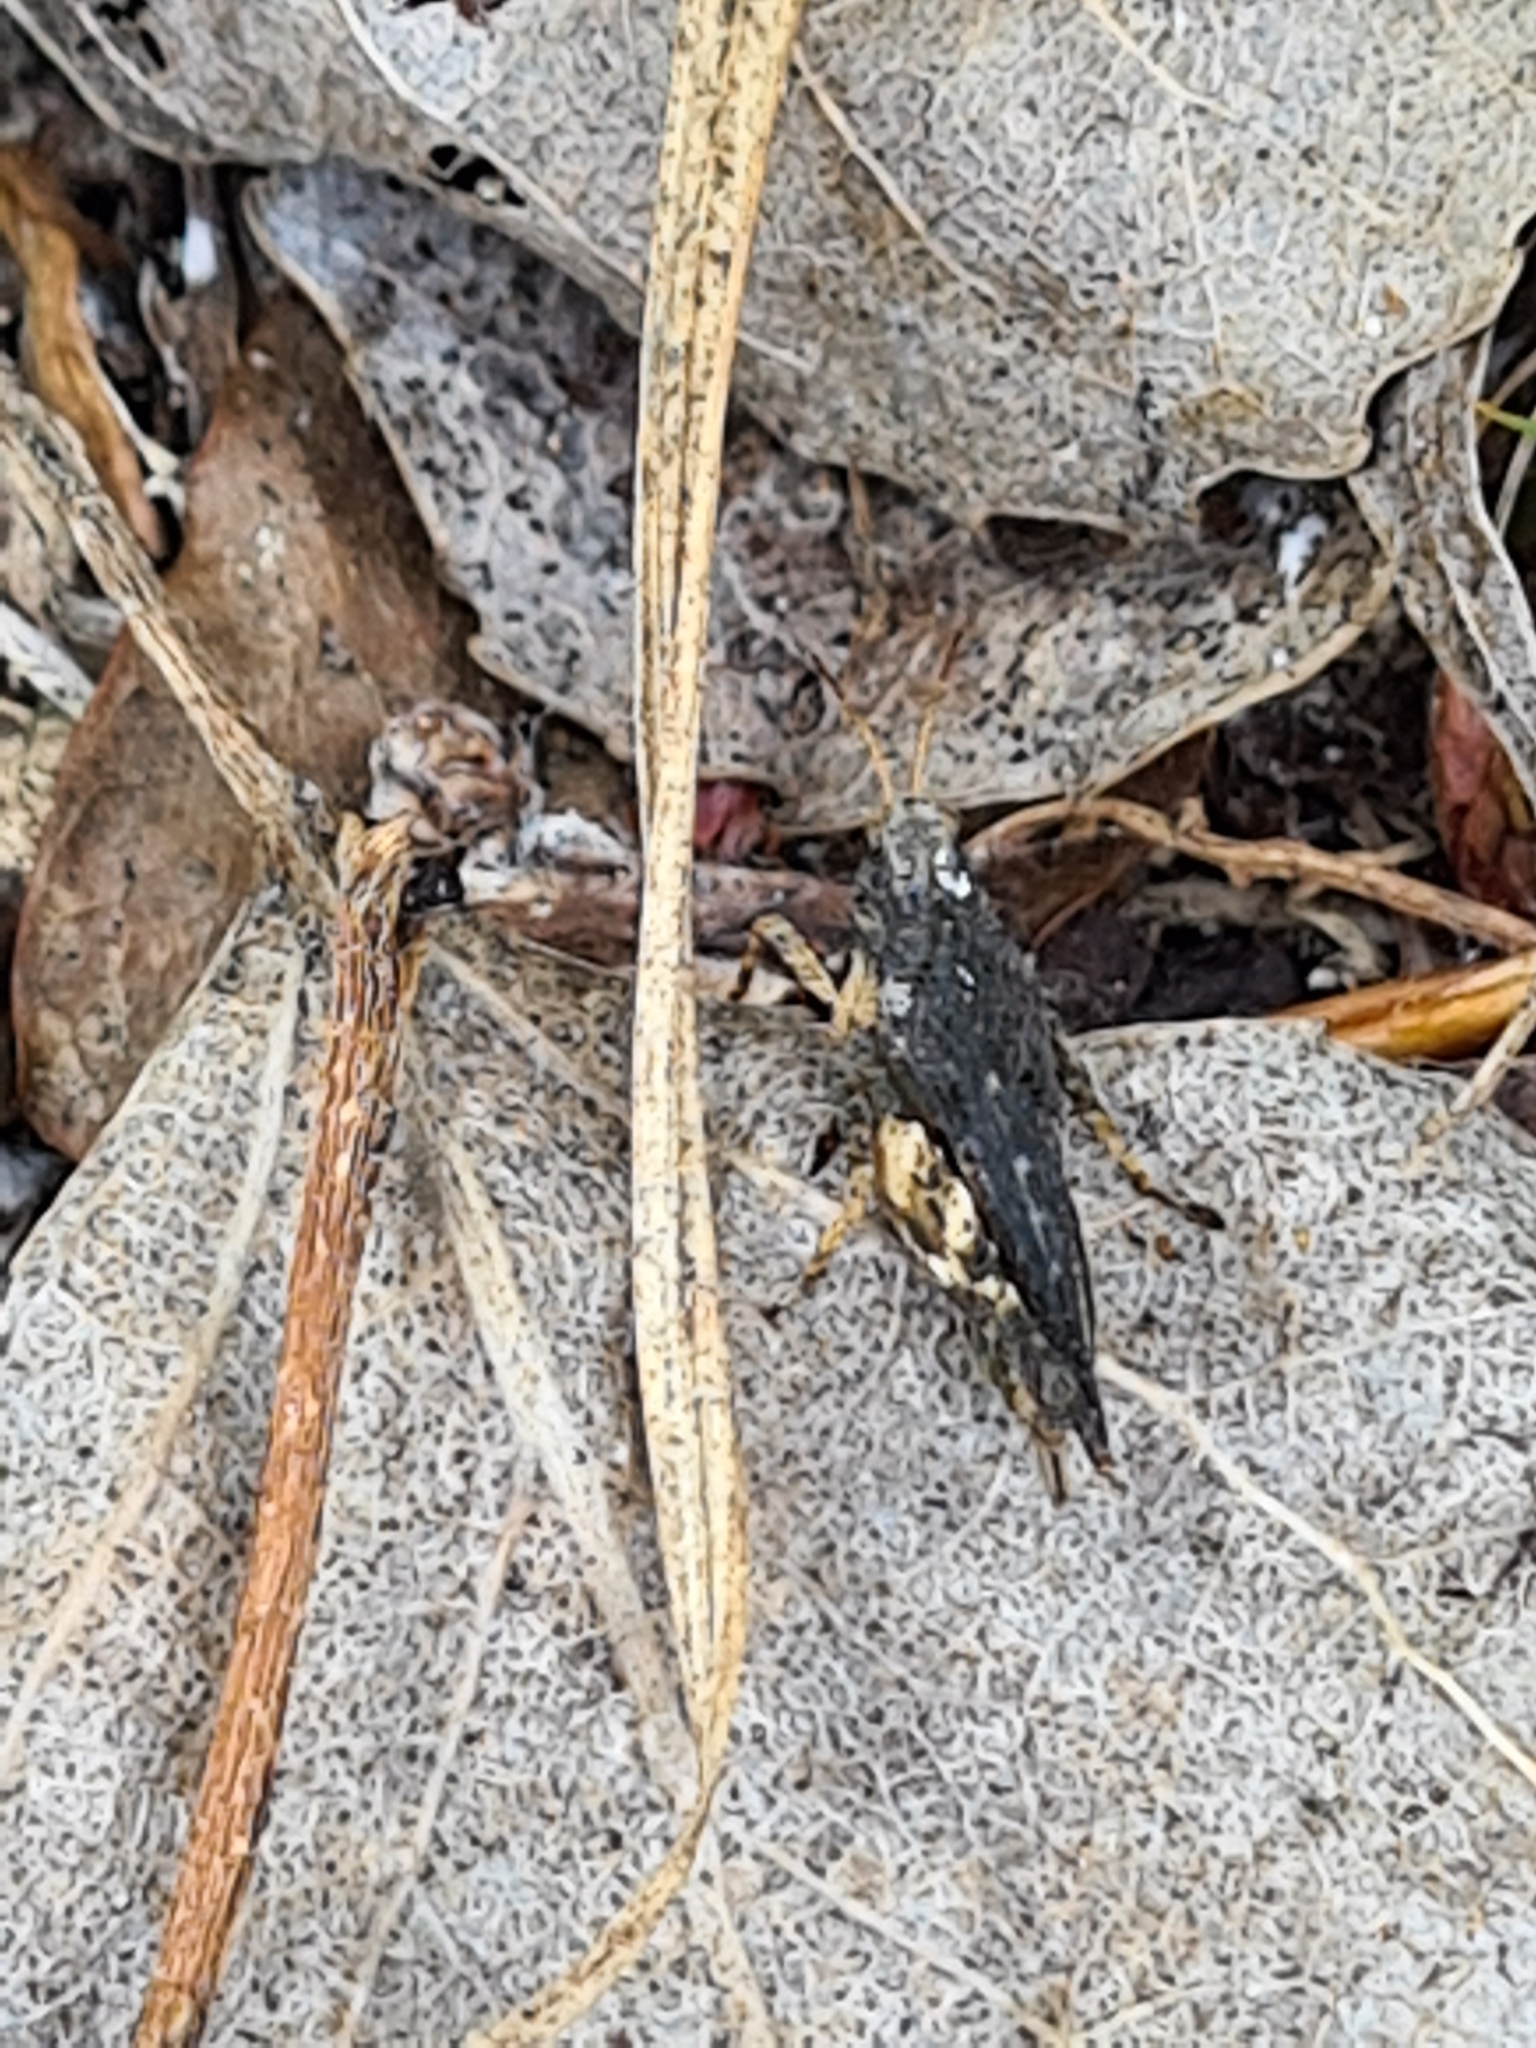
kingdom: Animalia
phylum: Arthropoda
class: Insecta
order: Orthoptera
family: Tetrigidae
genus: Tetrix
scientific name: Tetrix subulata
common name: Slender ground-hopper
